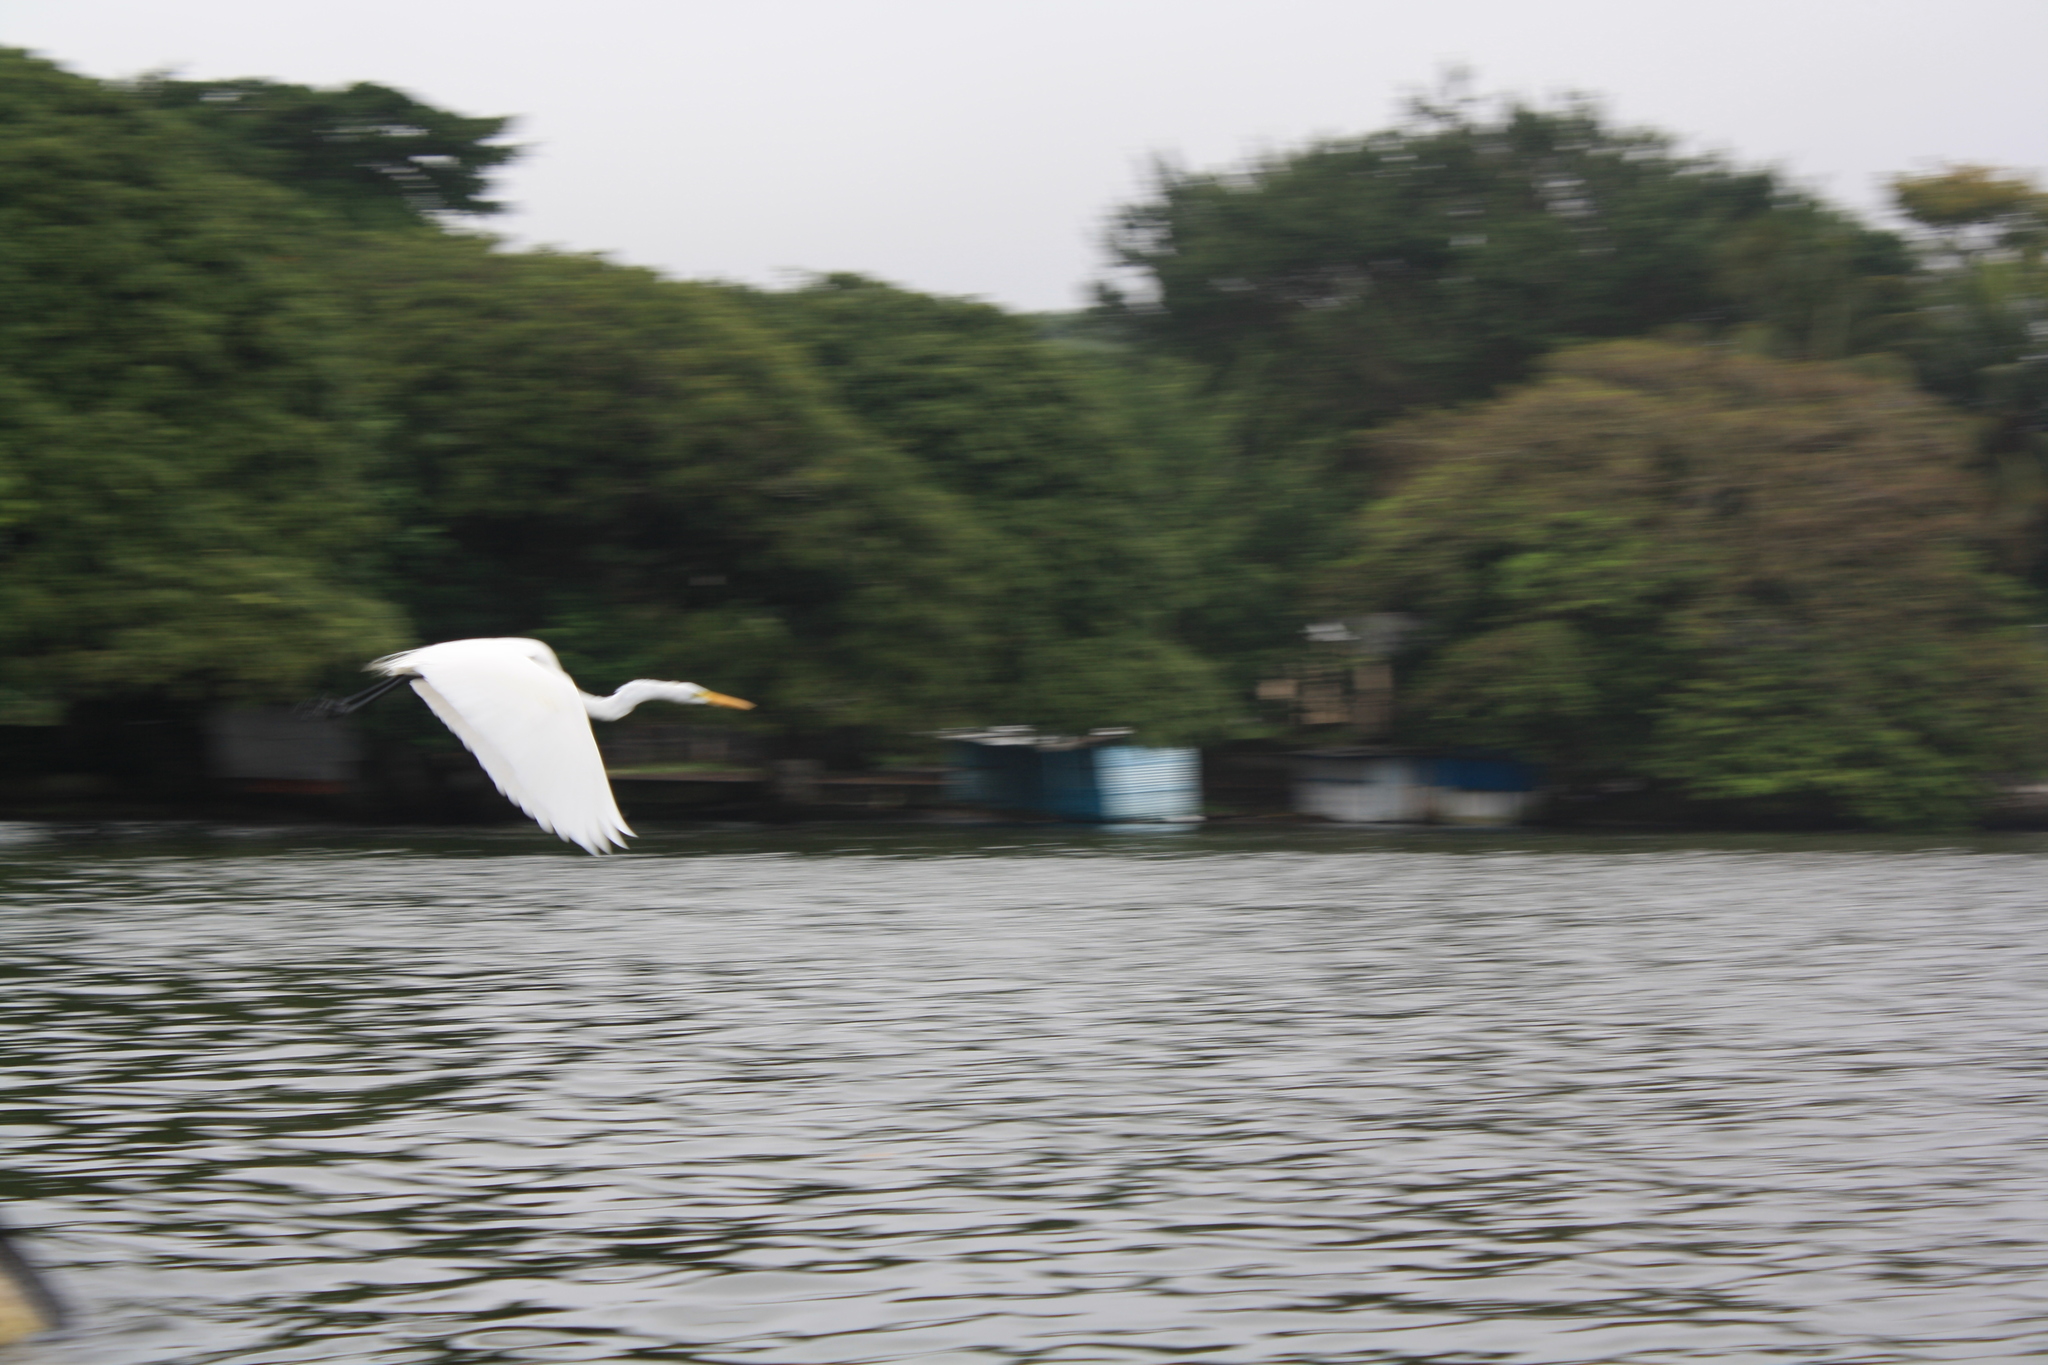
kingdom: Animalia
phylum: Chordata
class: Aves
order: Pelecaniformes
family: Ardeidae
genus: Ardea
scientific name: Ardea alba
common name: Great egret
